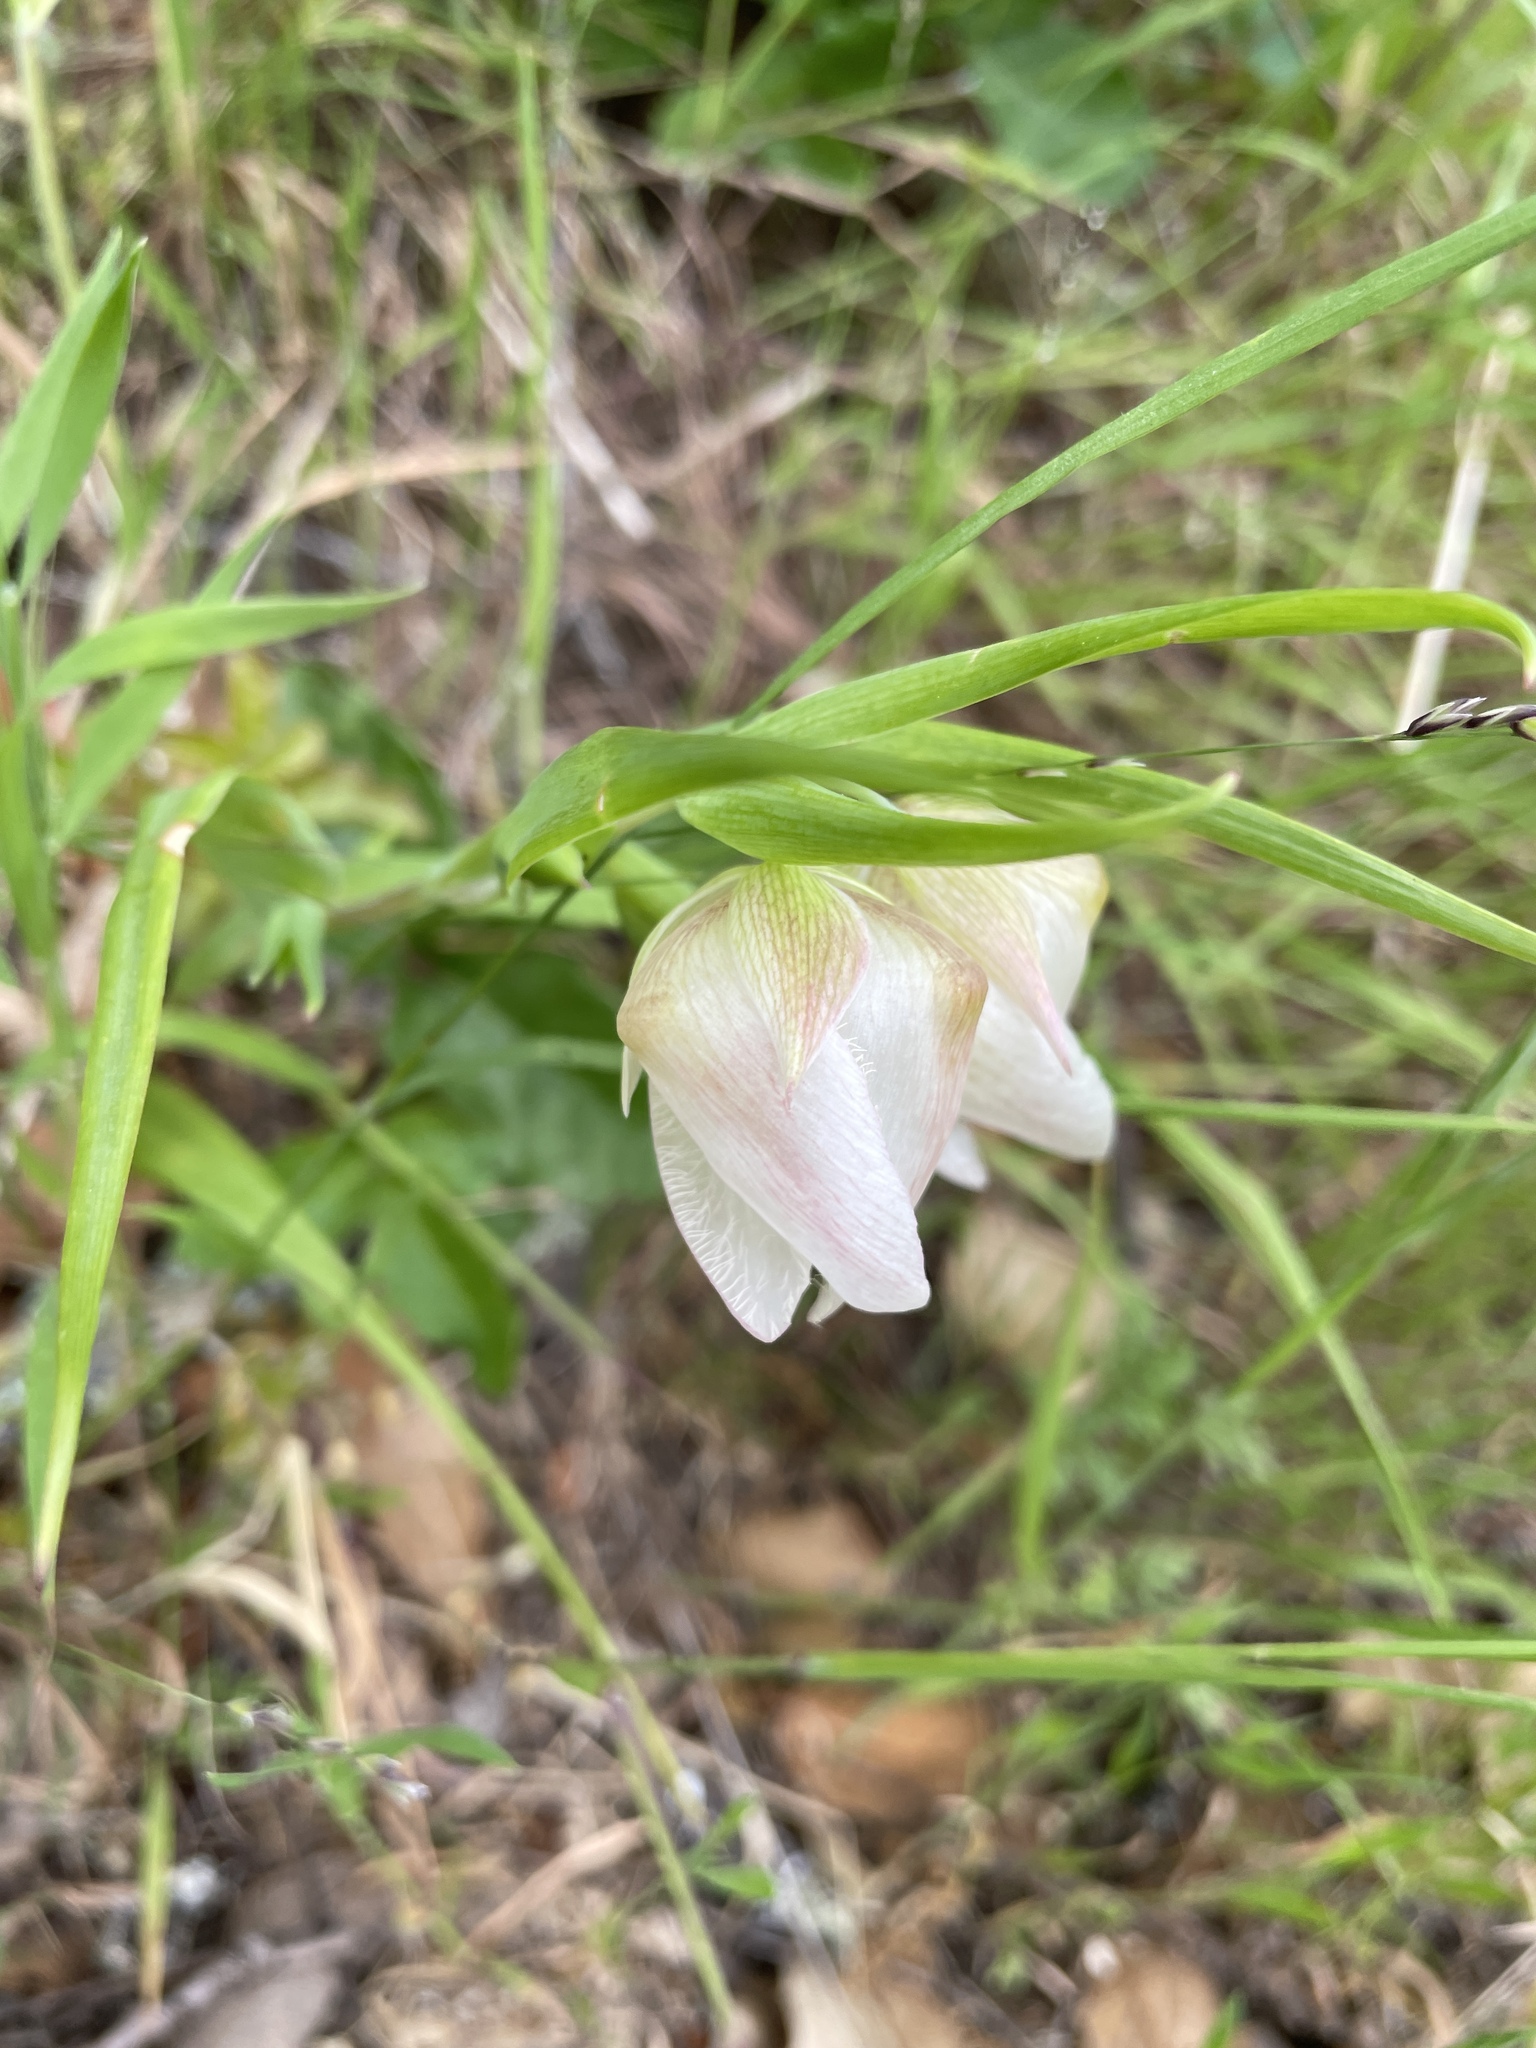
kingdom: Plantae
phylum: Tracheophyta
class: Liliopsida
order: Liliales
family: Liliaceae
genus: Calochortus
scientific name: Calochortus albus
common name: Fairy-lantern
